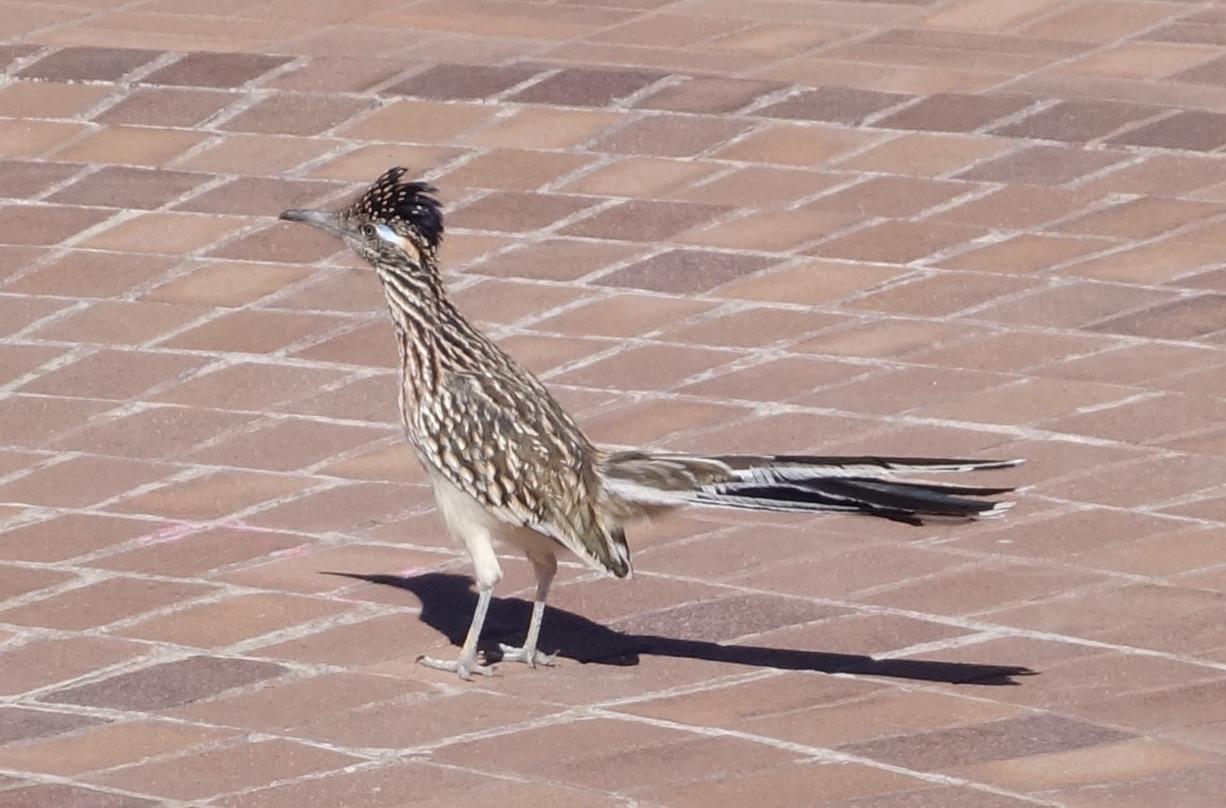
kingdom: Animalia
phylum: Chordata
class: Aves
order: Cuculiformes
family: Cuculidae
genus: Geococcyx
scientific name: Geococcyx californianus
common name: Greater roadrunner
